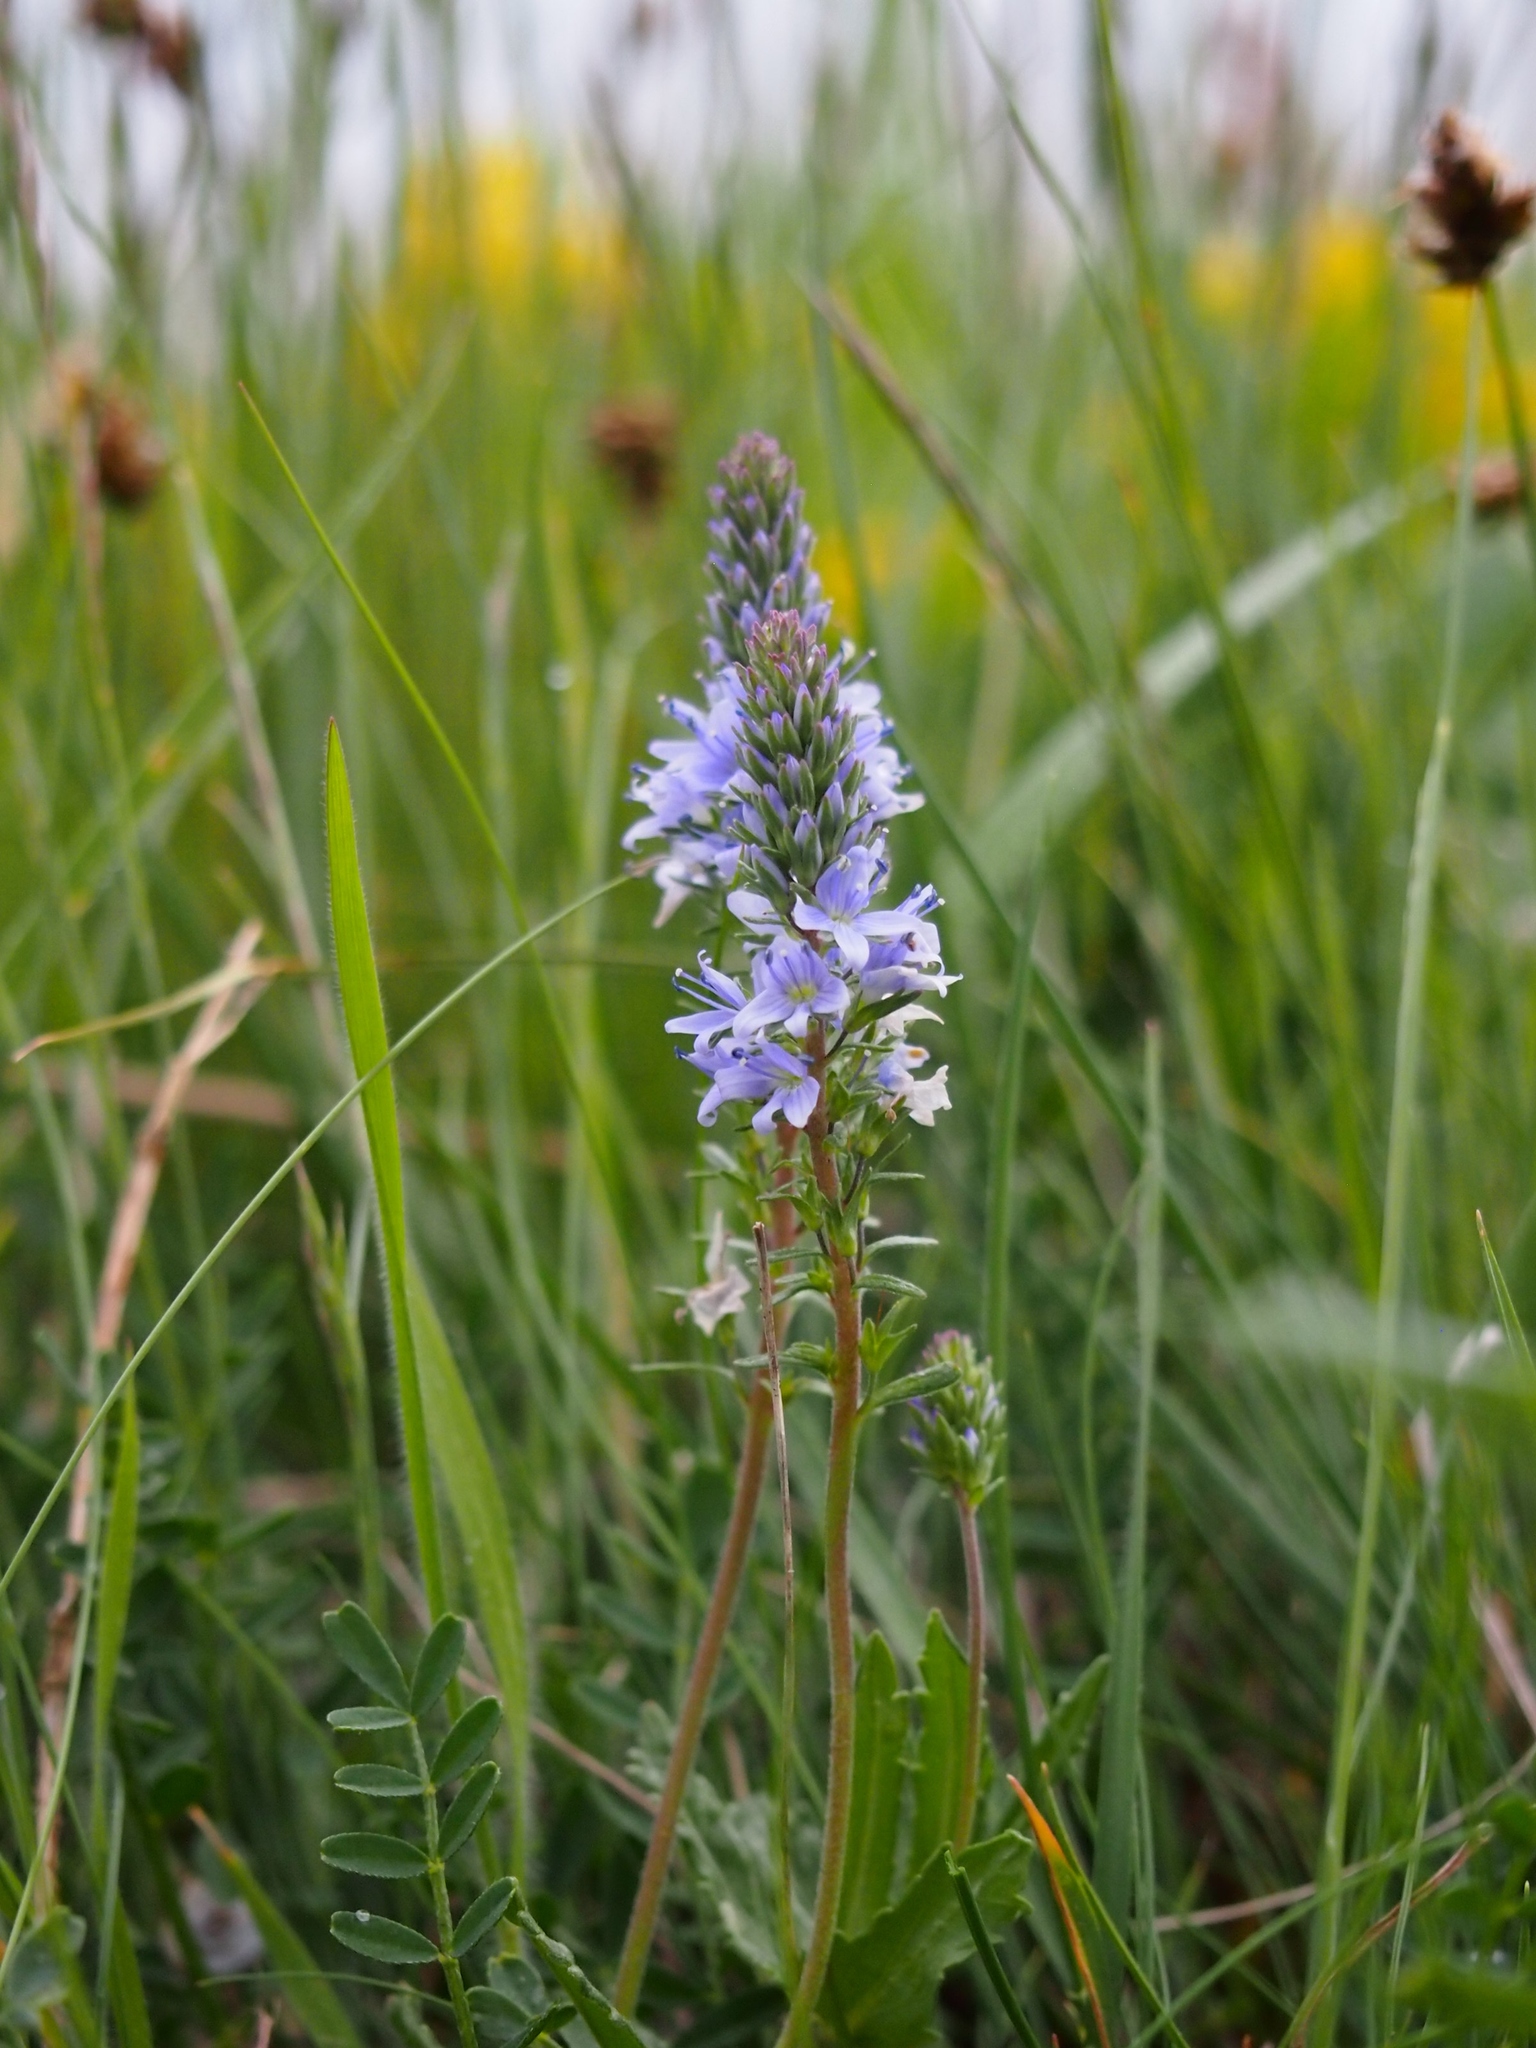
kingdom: Plantae
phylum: Tracheophyta
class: Magnoliopsida
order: Lamiales
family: Plantaginaceae
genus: Veronica
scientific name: Veronica austriaca
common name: Large speedwell
